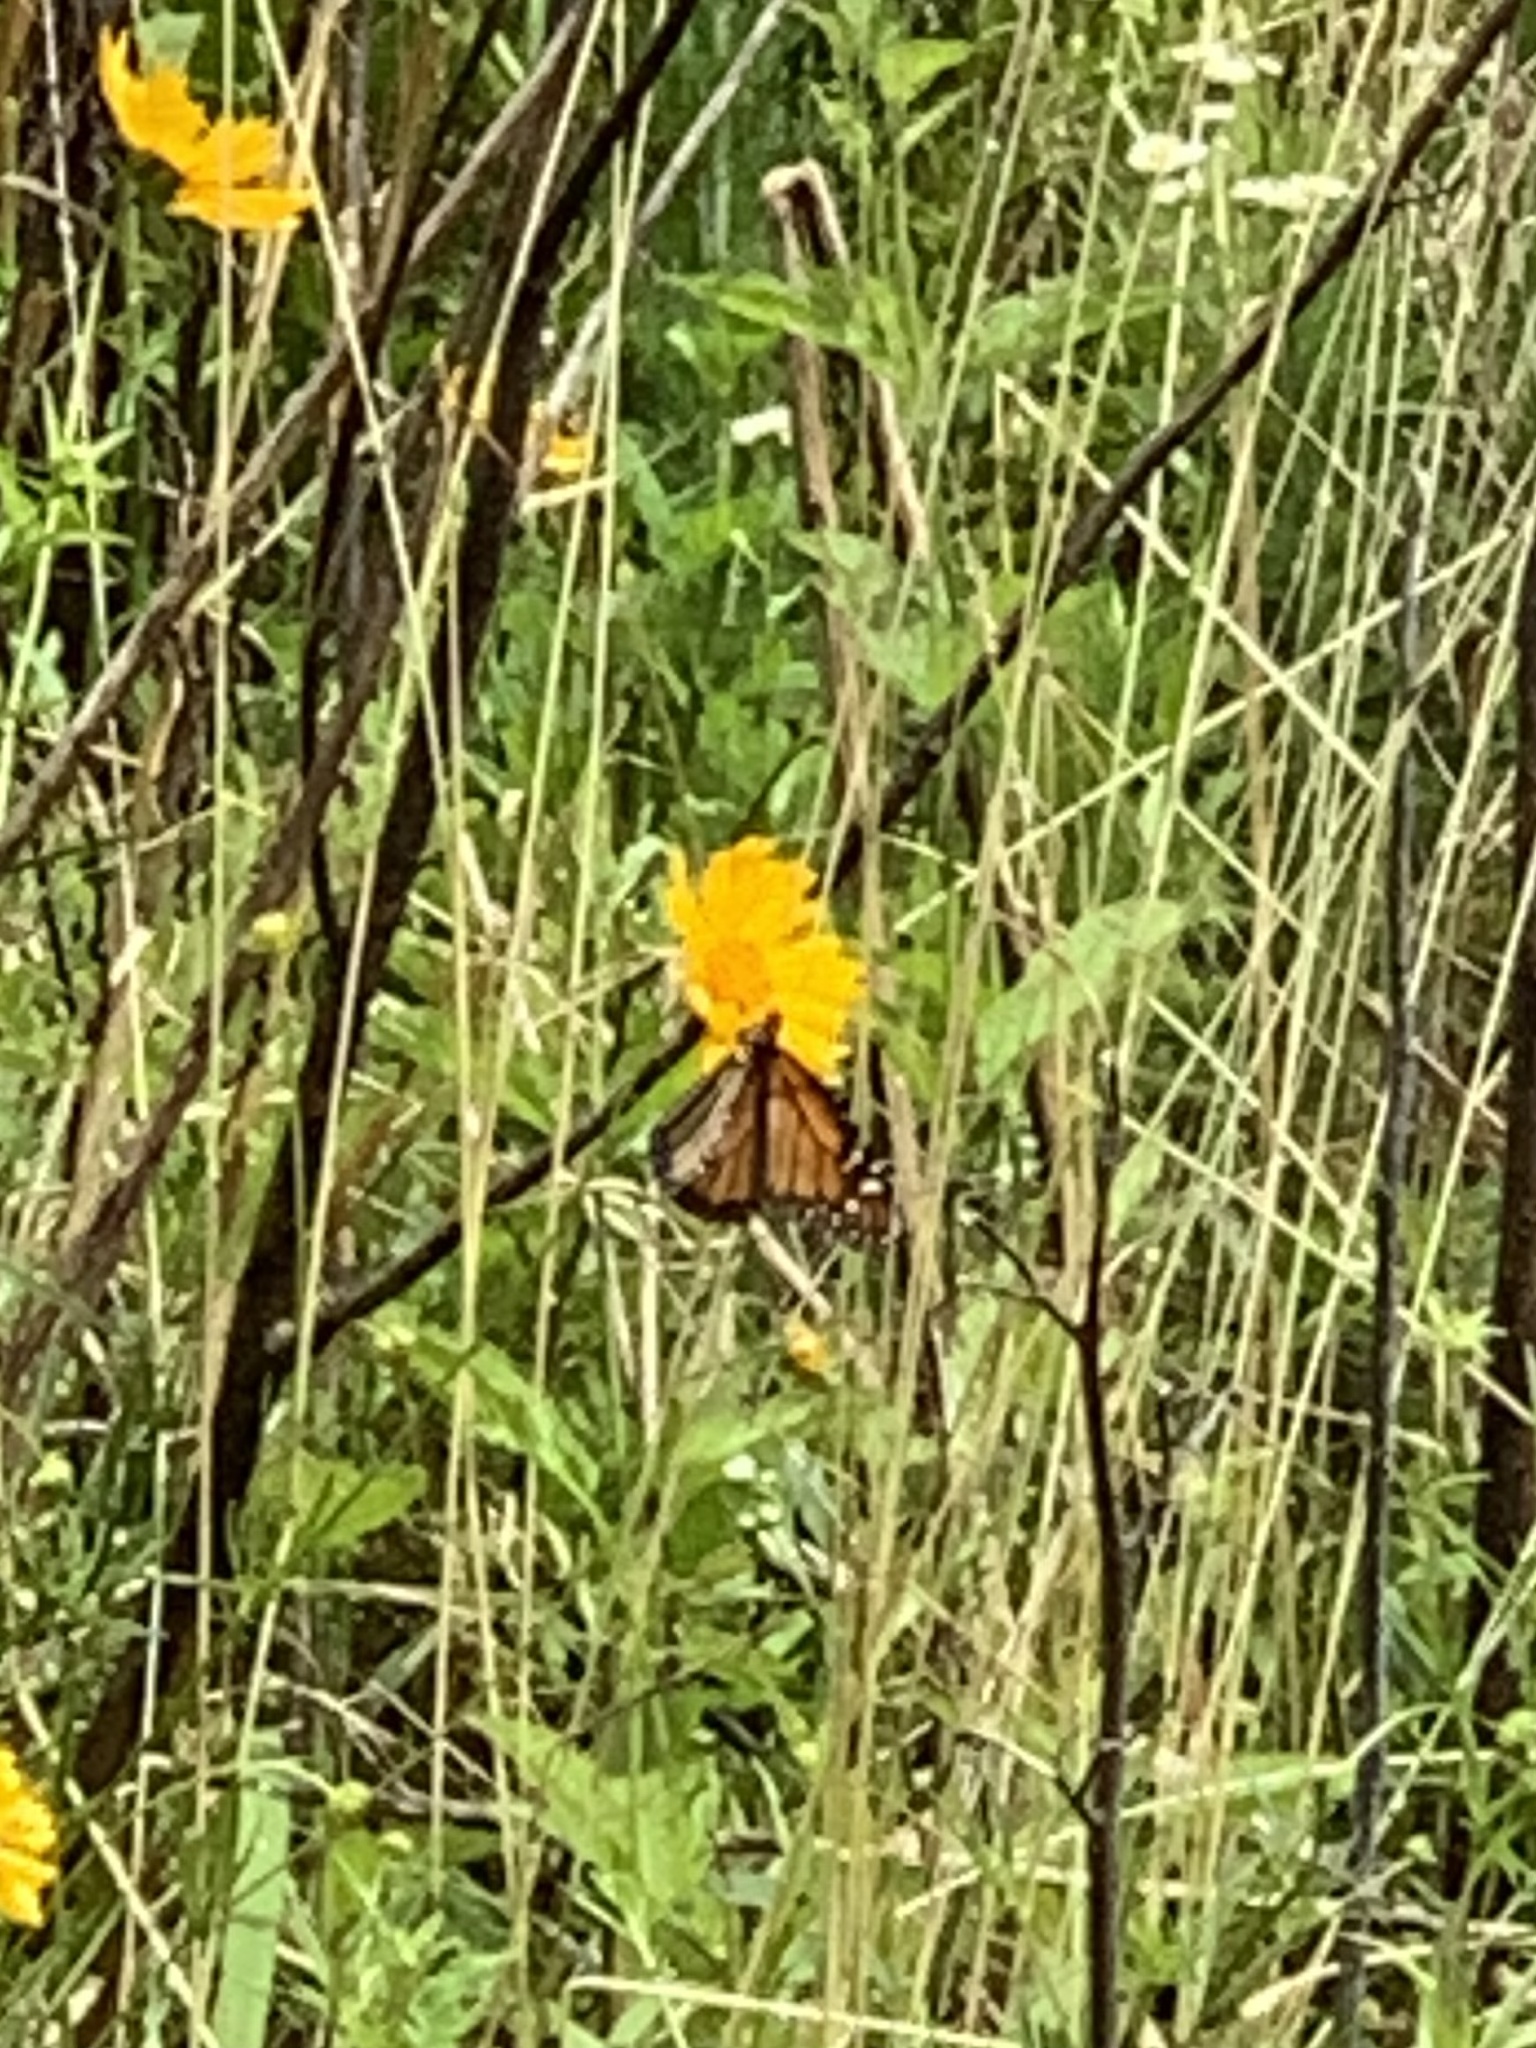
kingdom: Animalia
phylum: Arthropoda
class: Insecta
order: Lepidoptera
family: Nymphalidae
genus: Danaus
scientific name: Danaus plexippus
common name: Monarch
